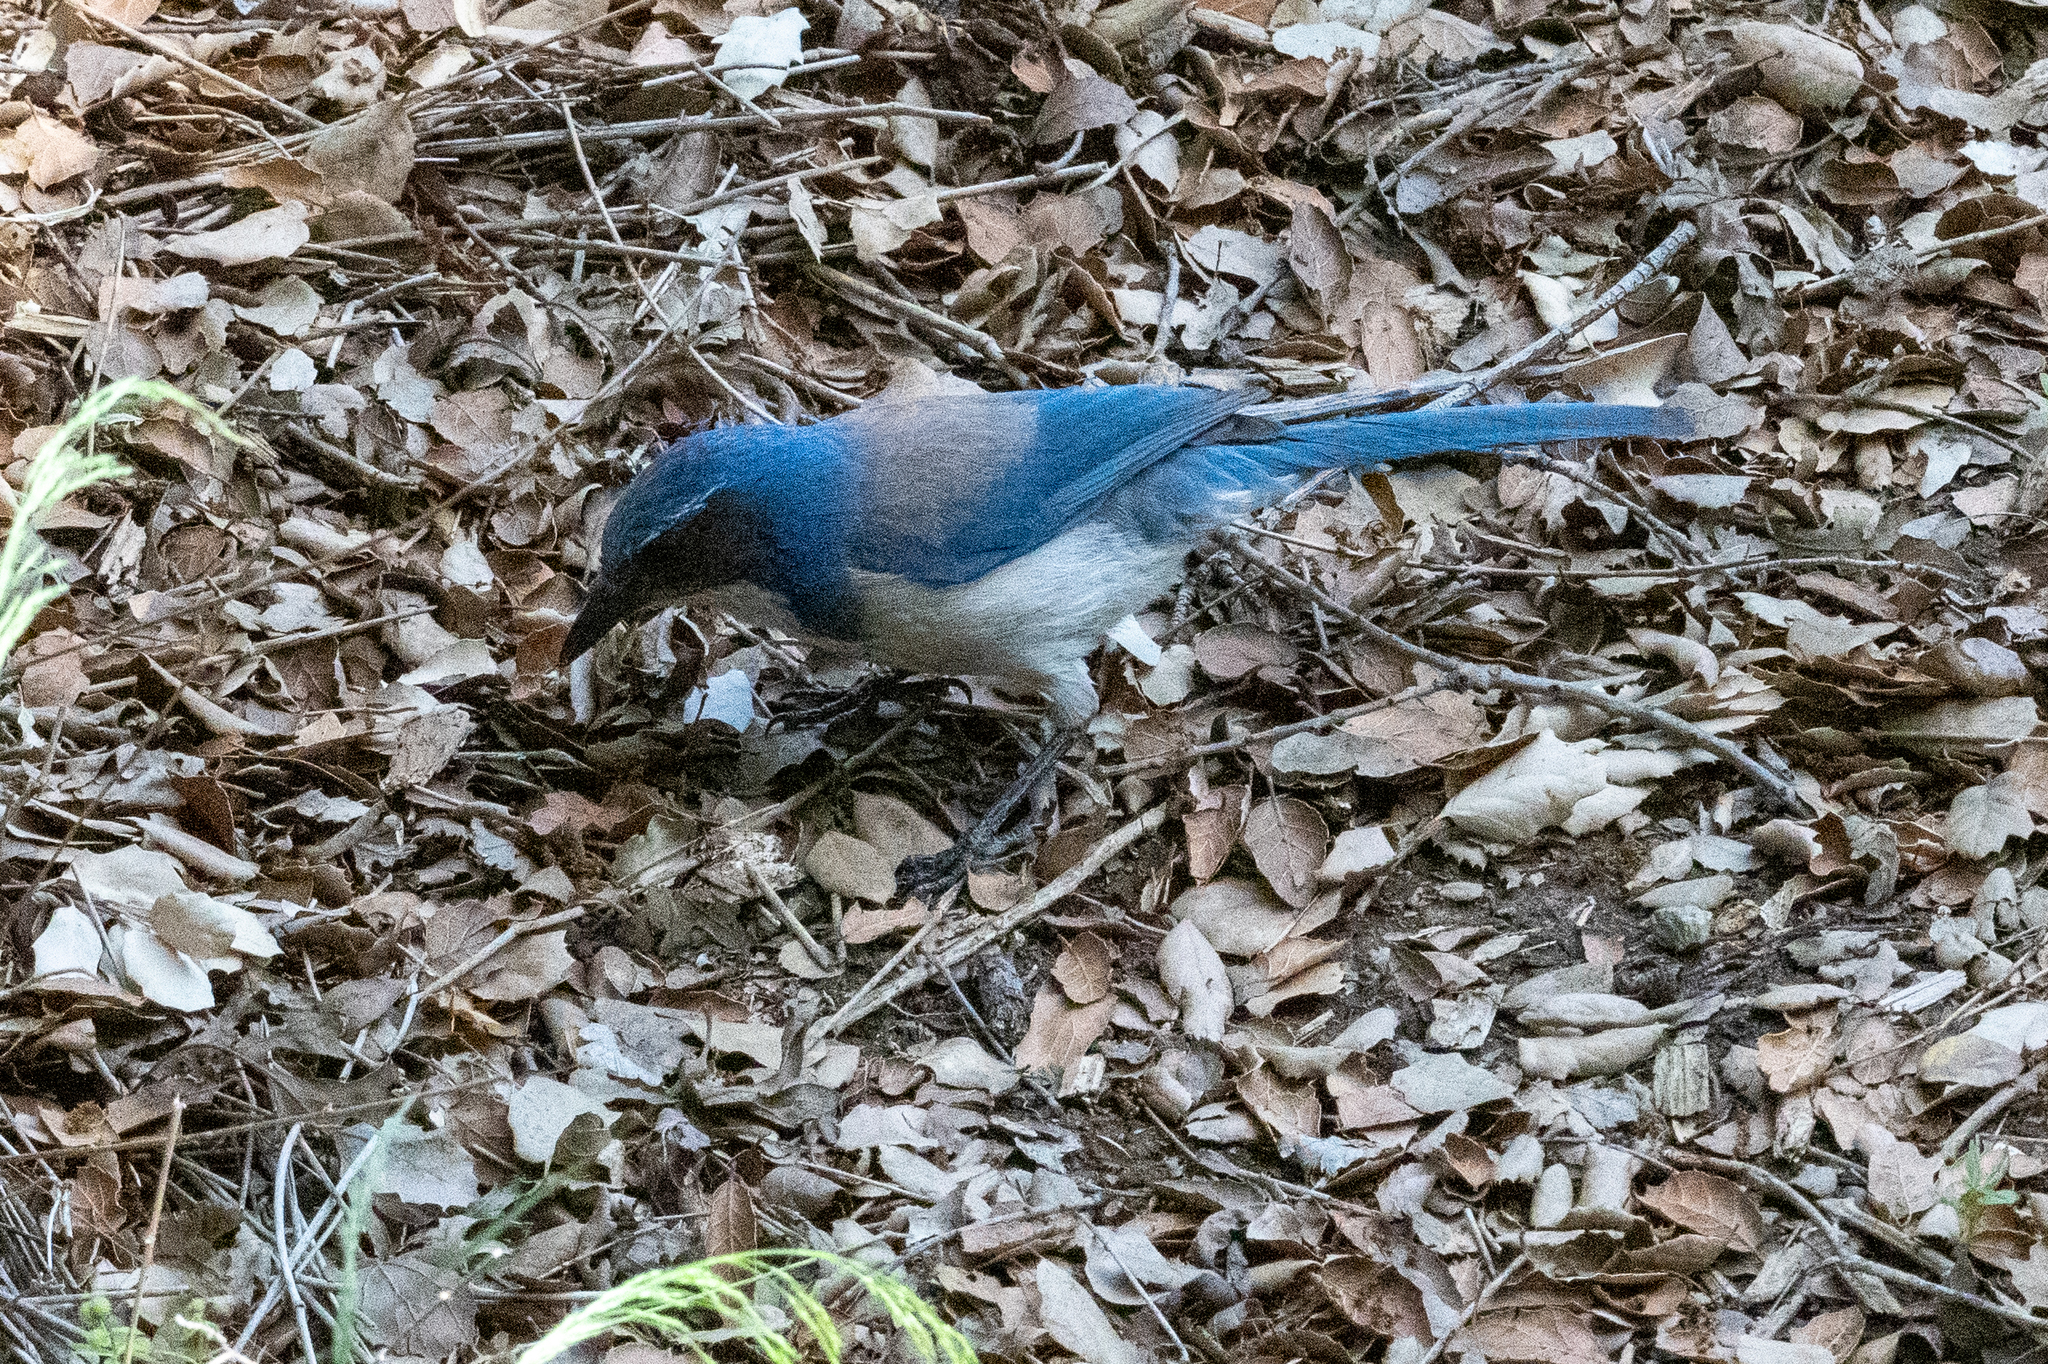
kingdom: Animalia
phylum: Chordata
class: Aves
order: Passeriformes
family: Corvidae
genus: Aphelocoma
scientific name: Aphelocoma californica
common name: California scrub-jay
